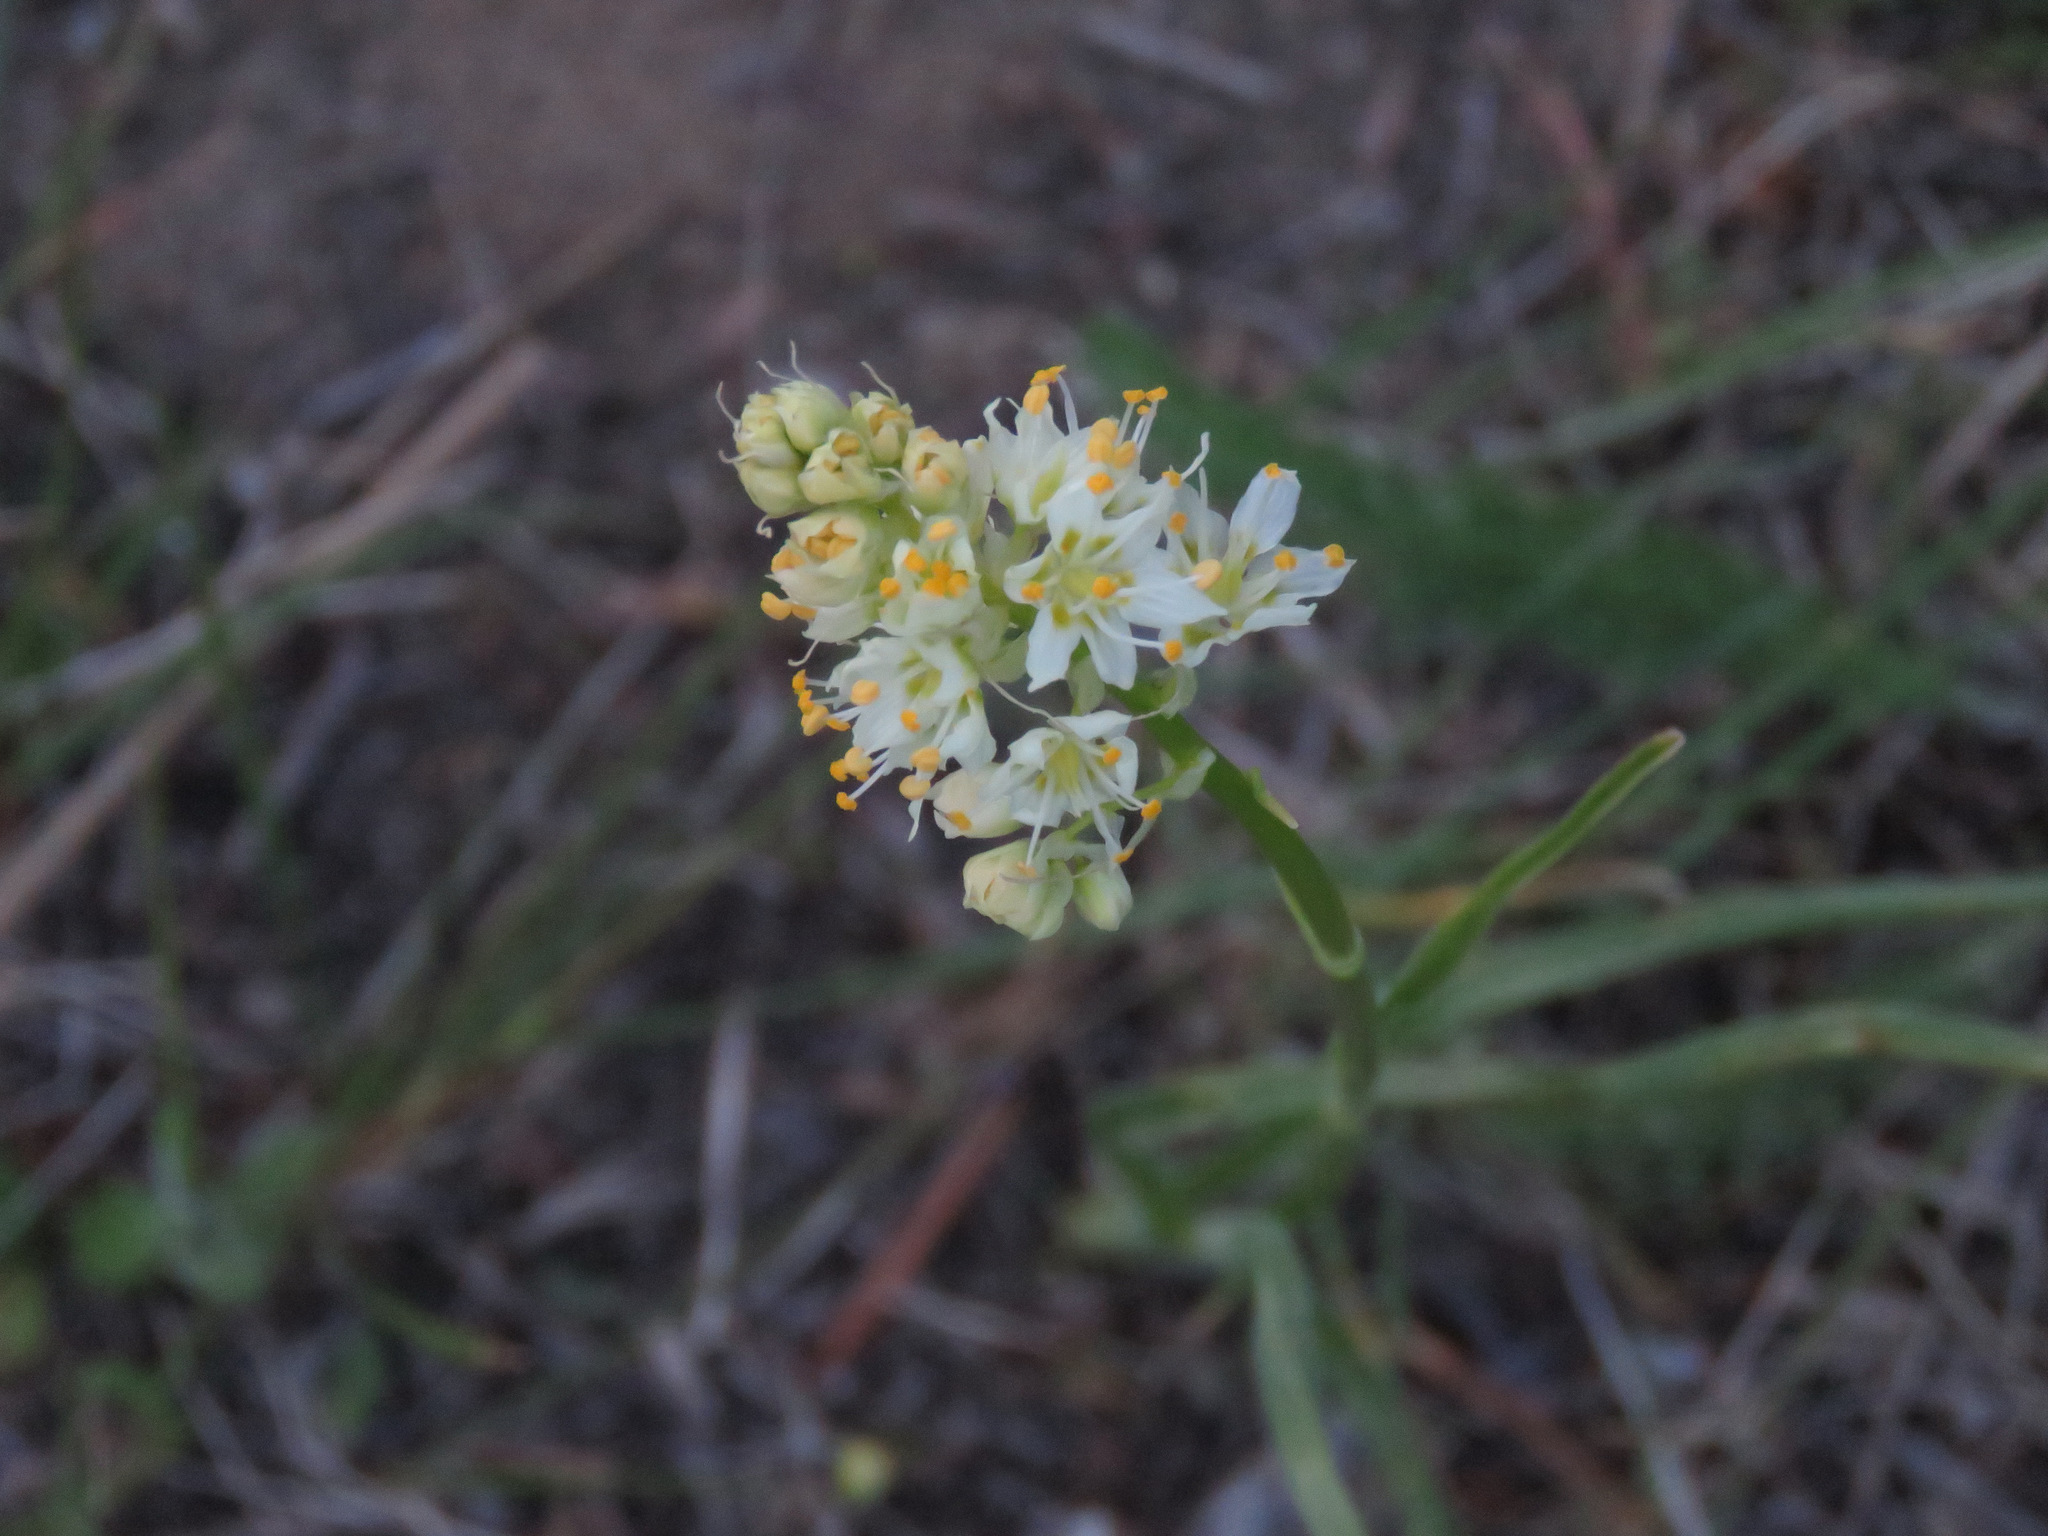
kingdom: Plantae
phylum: Tracheophyta
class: Liliopsida
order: Liliales
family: Melanthiaceae
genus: Toxicoscordion
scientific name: Toxicoscordion venenosum
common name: Meadow death camas
